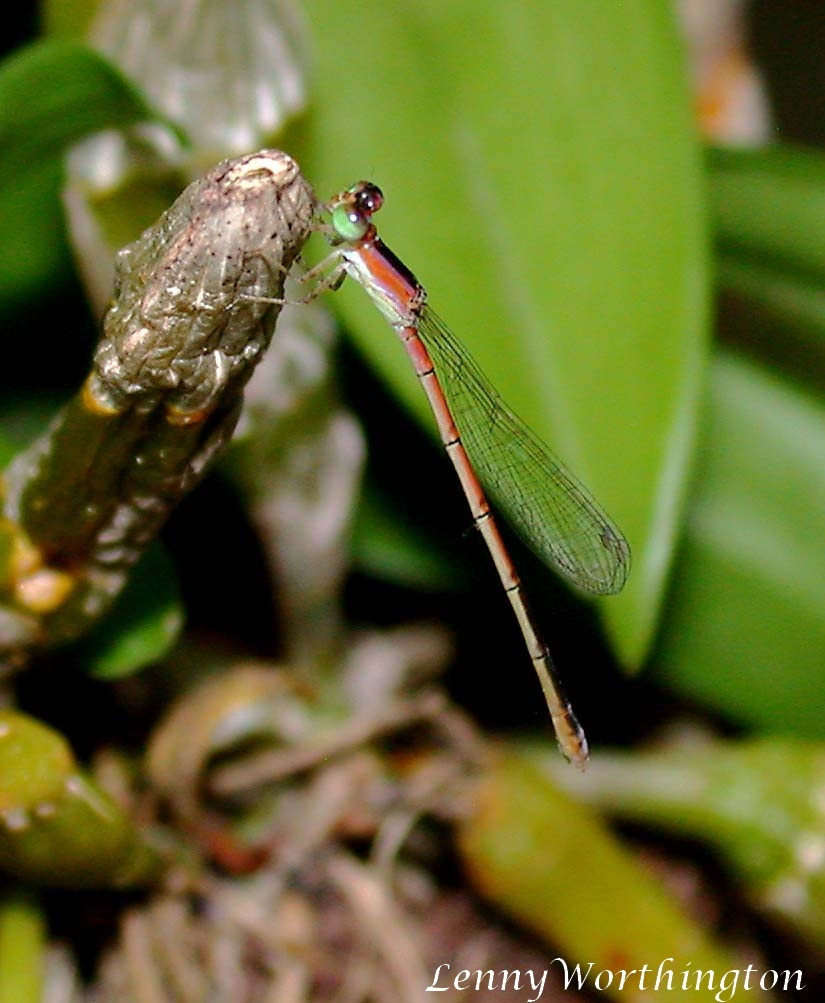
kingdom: Animalia
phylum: Arthropoda
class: Insecta
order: Odonata
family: Coenagrionidae
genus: Agriocnemis
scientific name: Agriocnemis pygmaea
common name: Pygmy wisp
